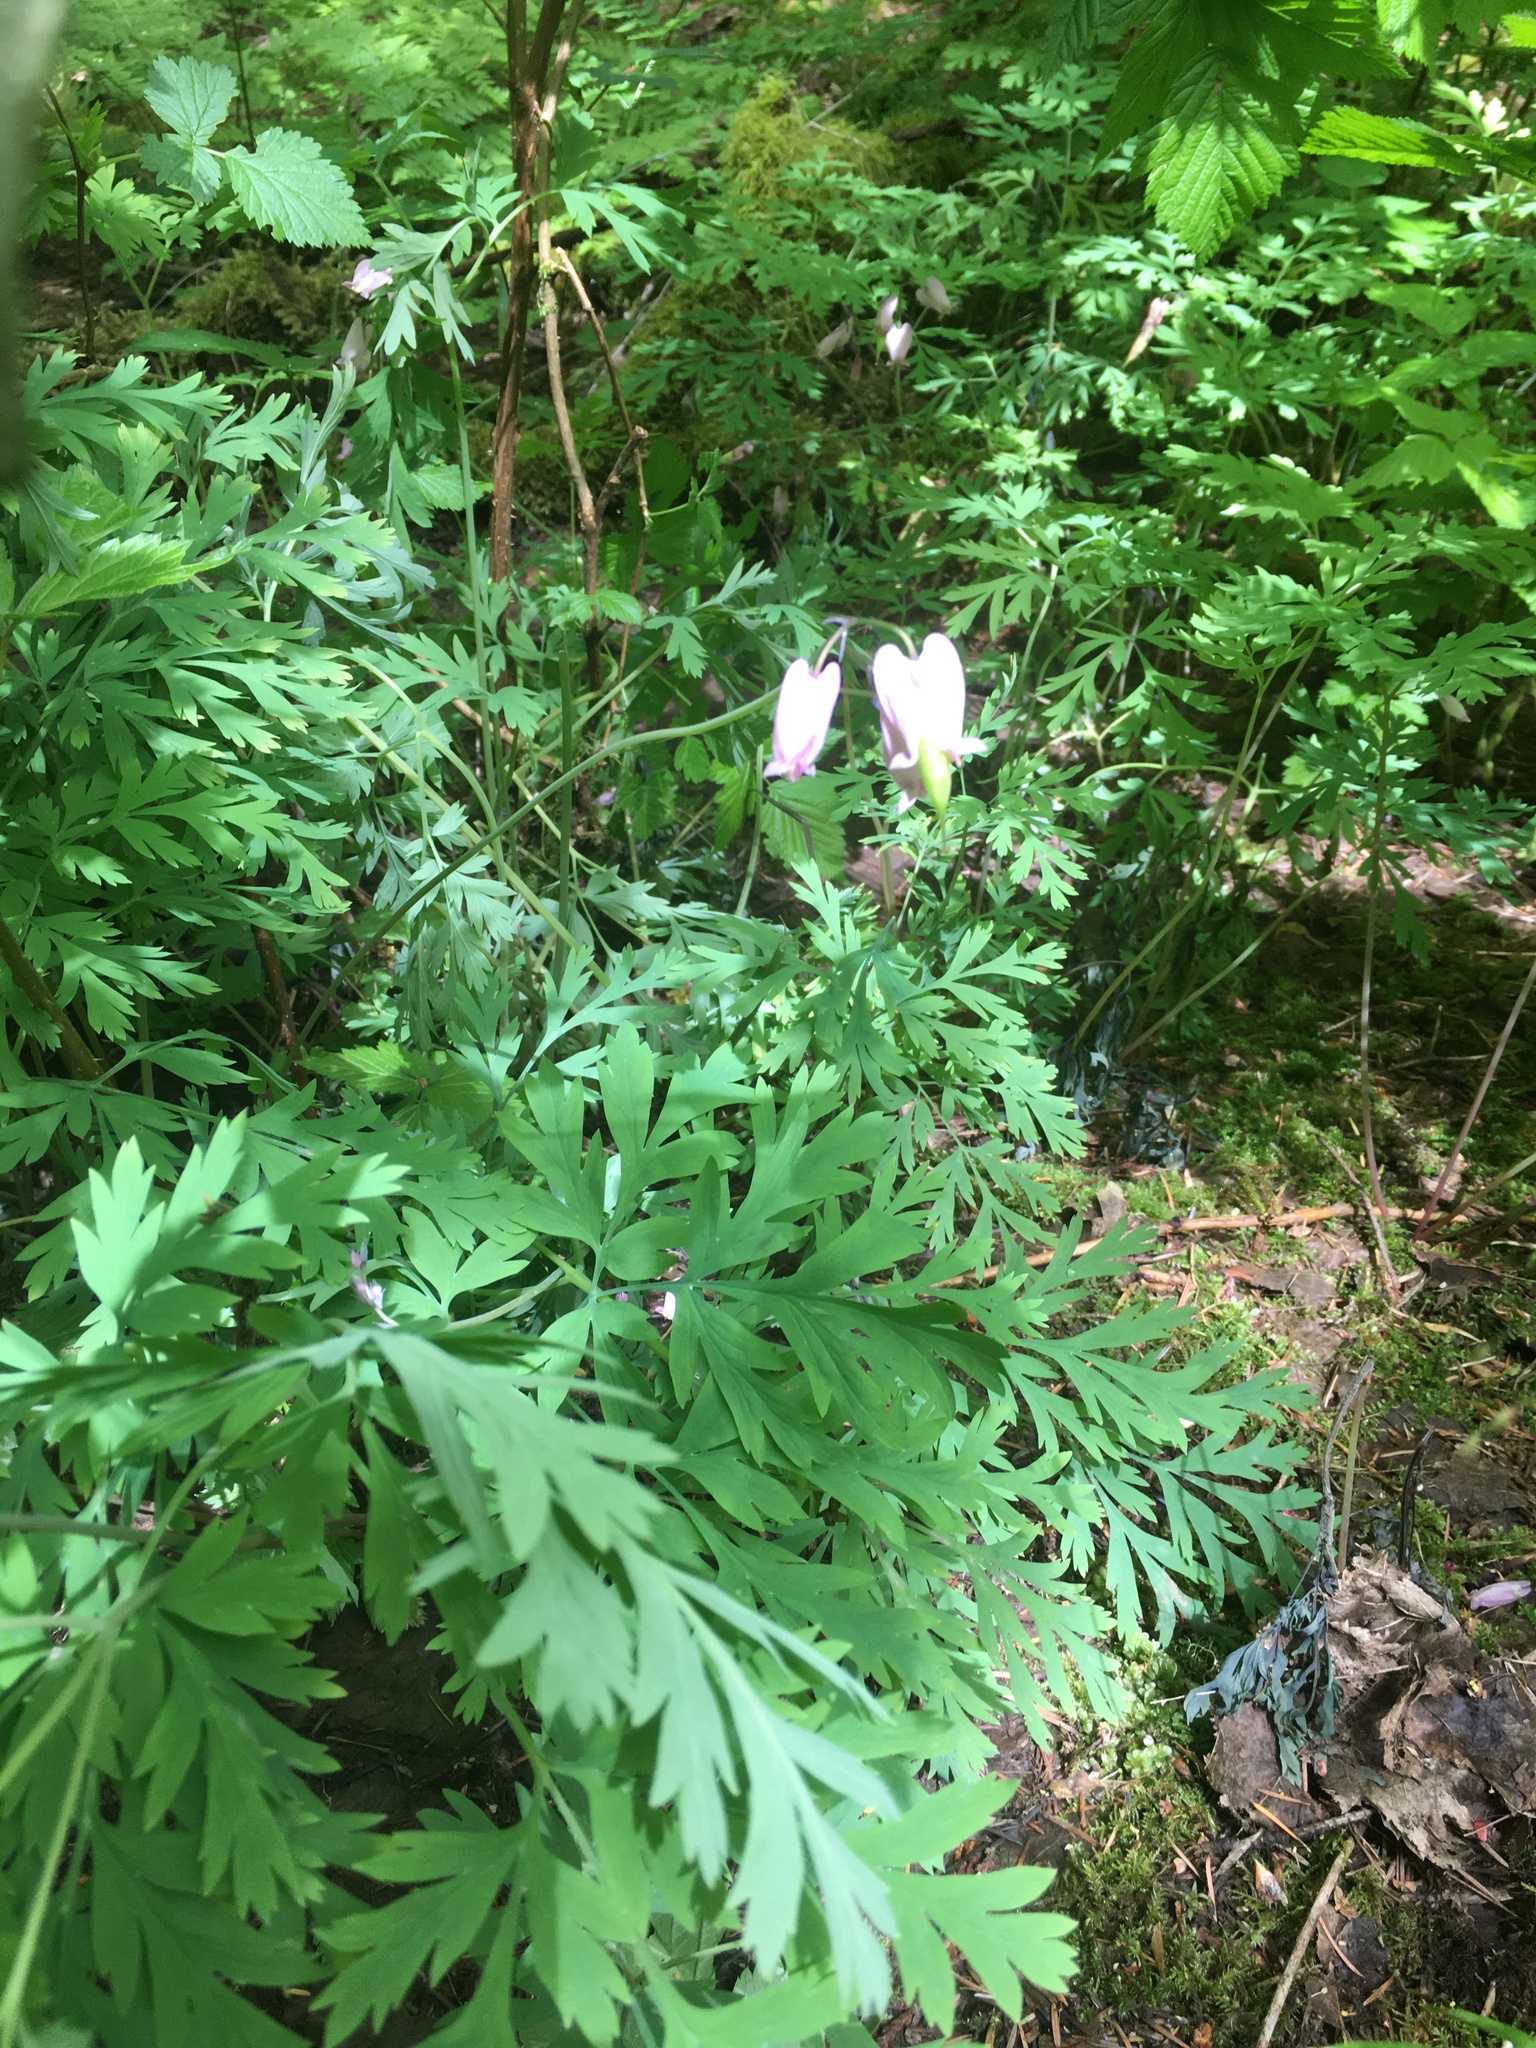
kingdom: Plantae
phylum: Tracheophyta
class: Magnoliopsida
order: Ranunculales
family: Papaveraceae
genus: Dicentra
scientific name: Dicentra formosa
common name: Bleeding-heart
